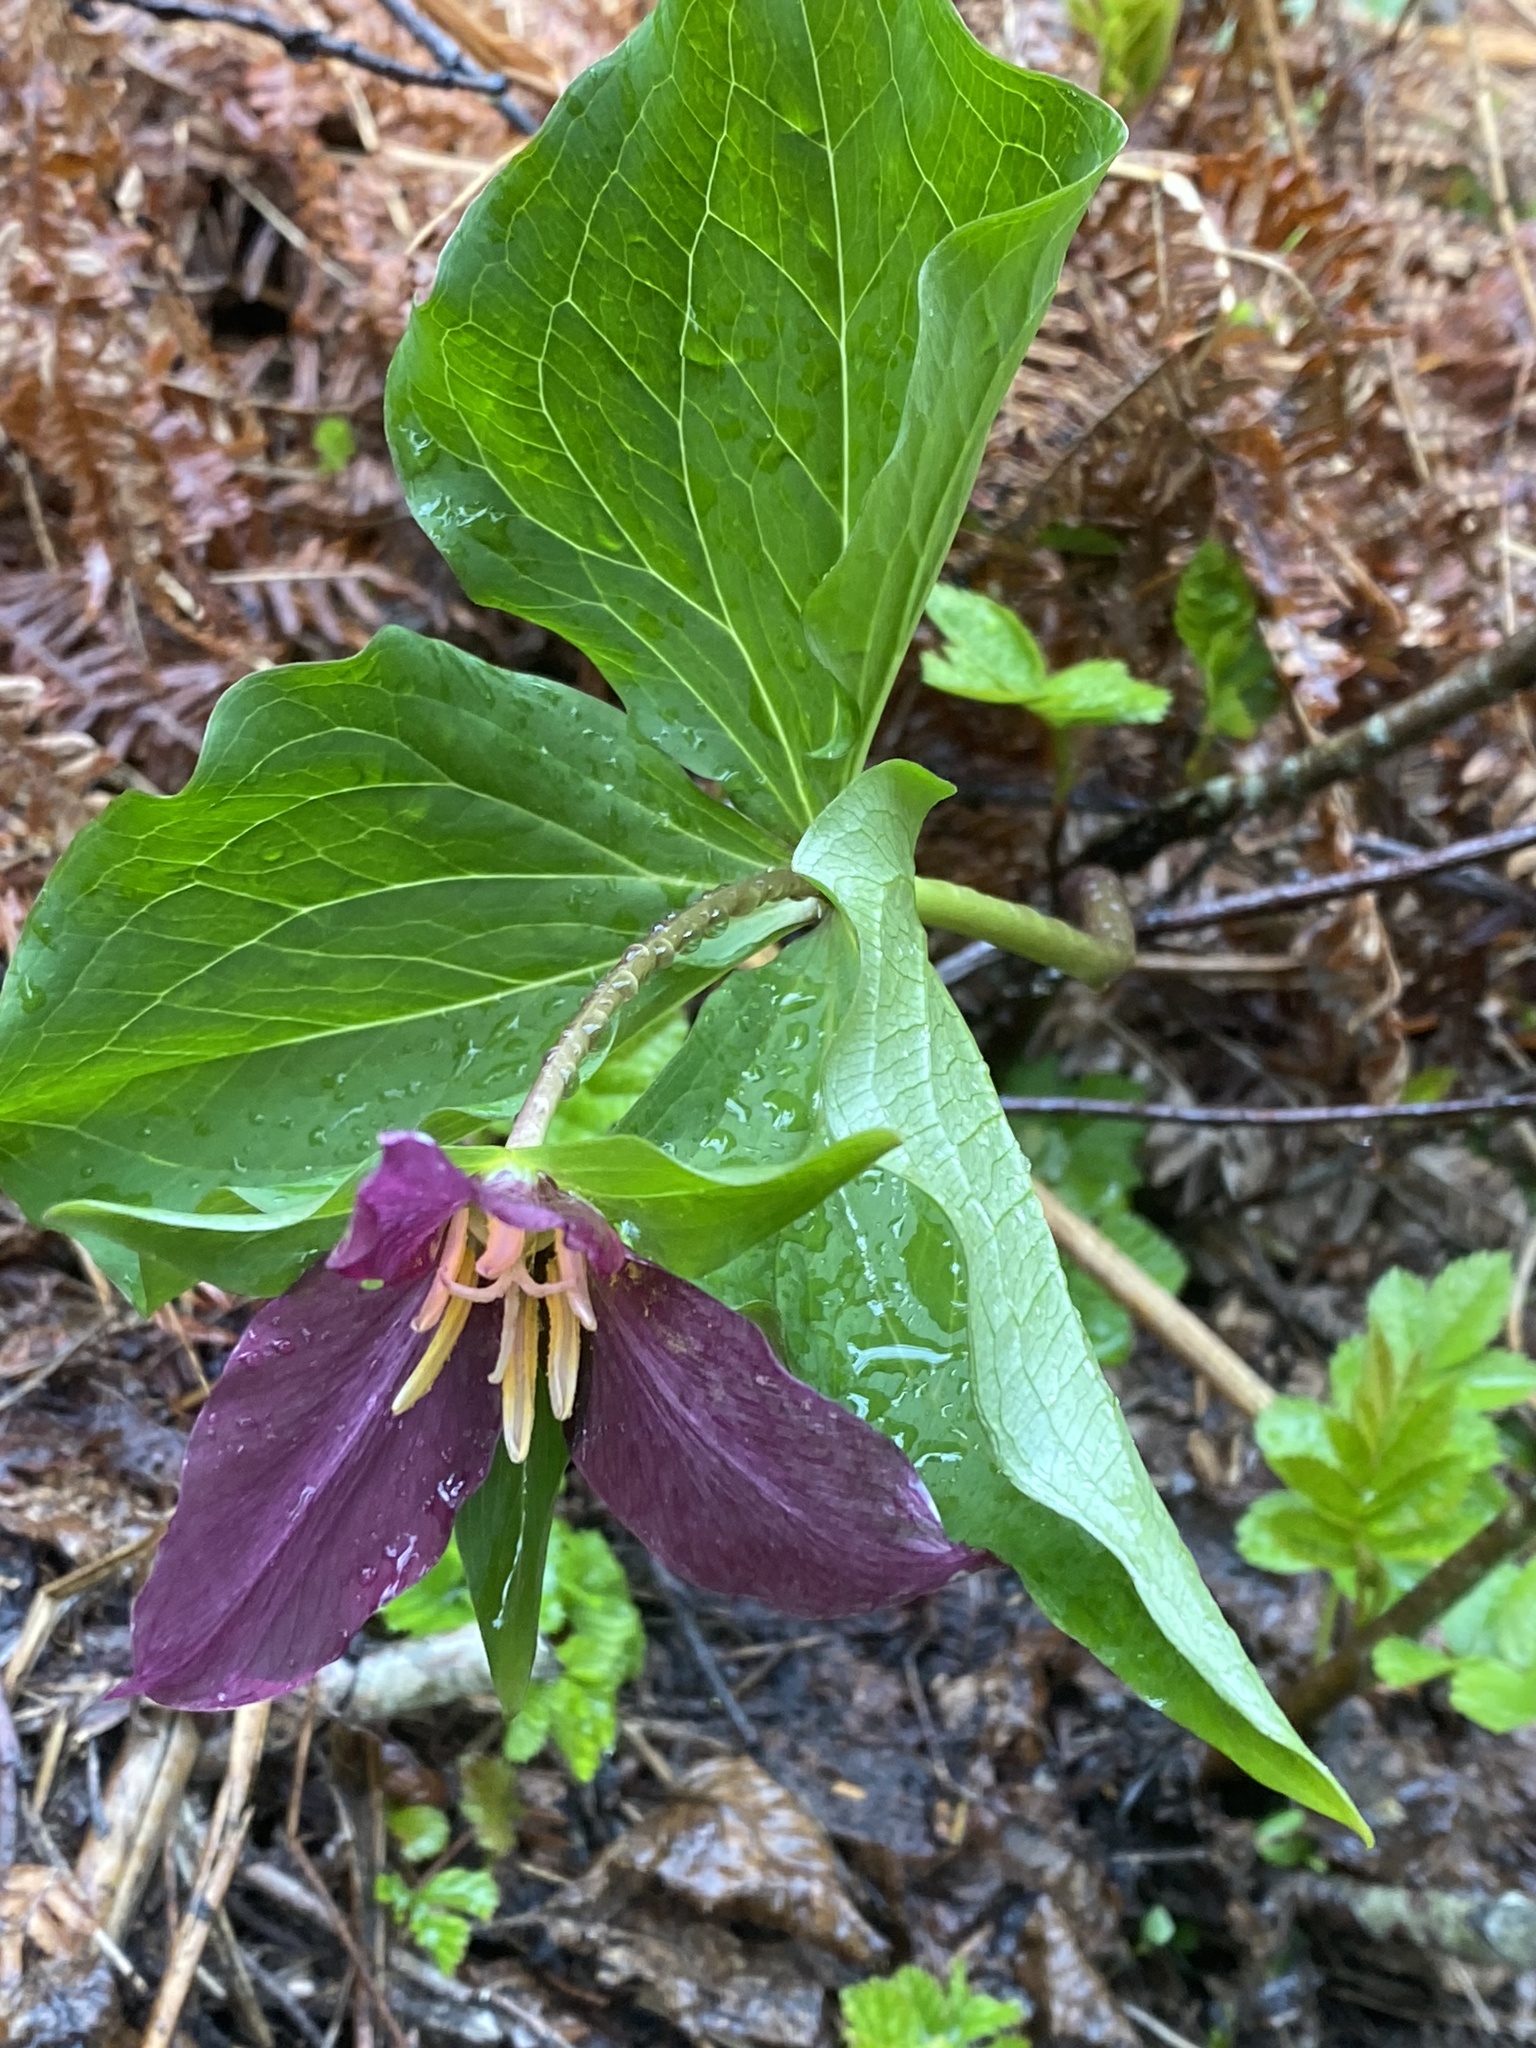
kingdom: Plantae
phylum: Tracheophyta
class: Liliopsida
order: Liliales
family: Melanthiaceae
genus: Trillium
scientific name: Trillium ovatum
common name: Pacific trillium
